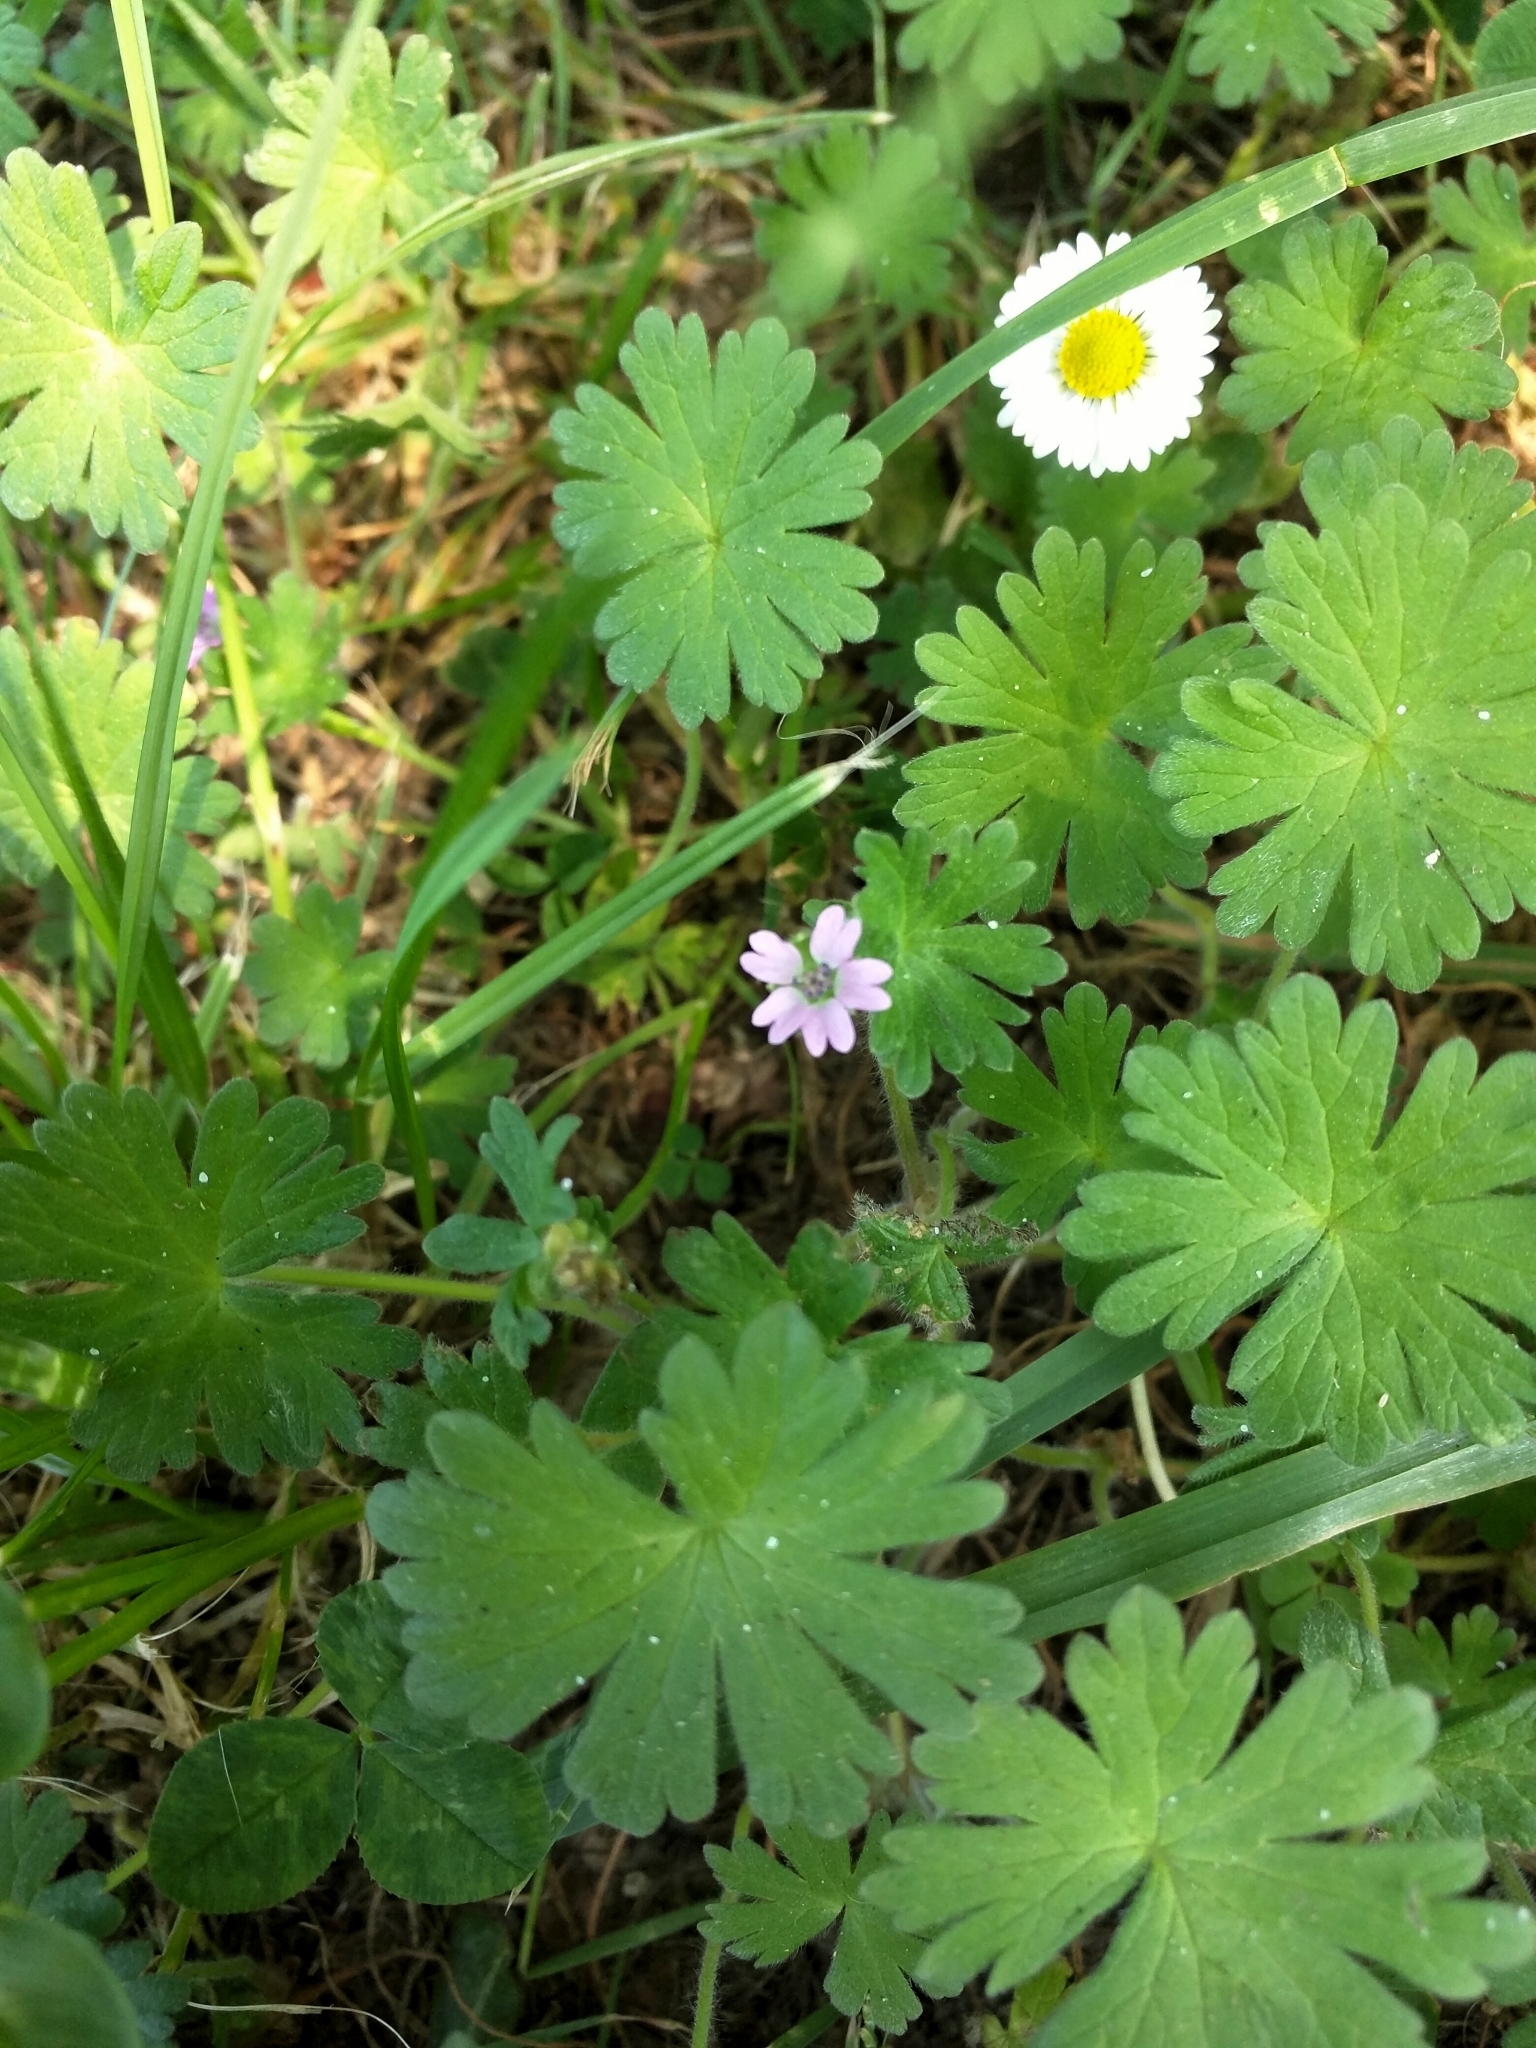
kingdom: Plantae
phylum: Tracheophyta
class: Magnoliopsida
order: Geraniales
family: Geraniaceae
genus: Geranium
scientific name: Geranium molle
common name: Dove's-foot crane's-bill
